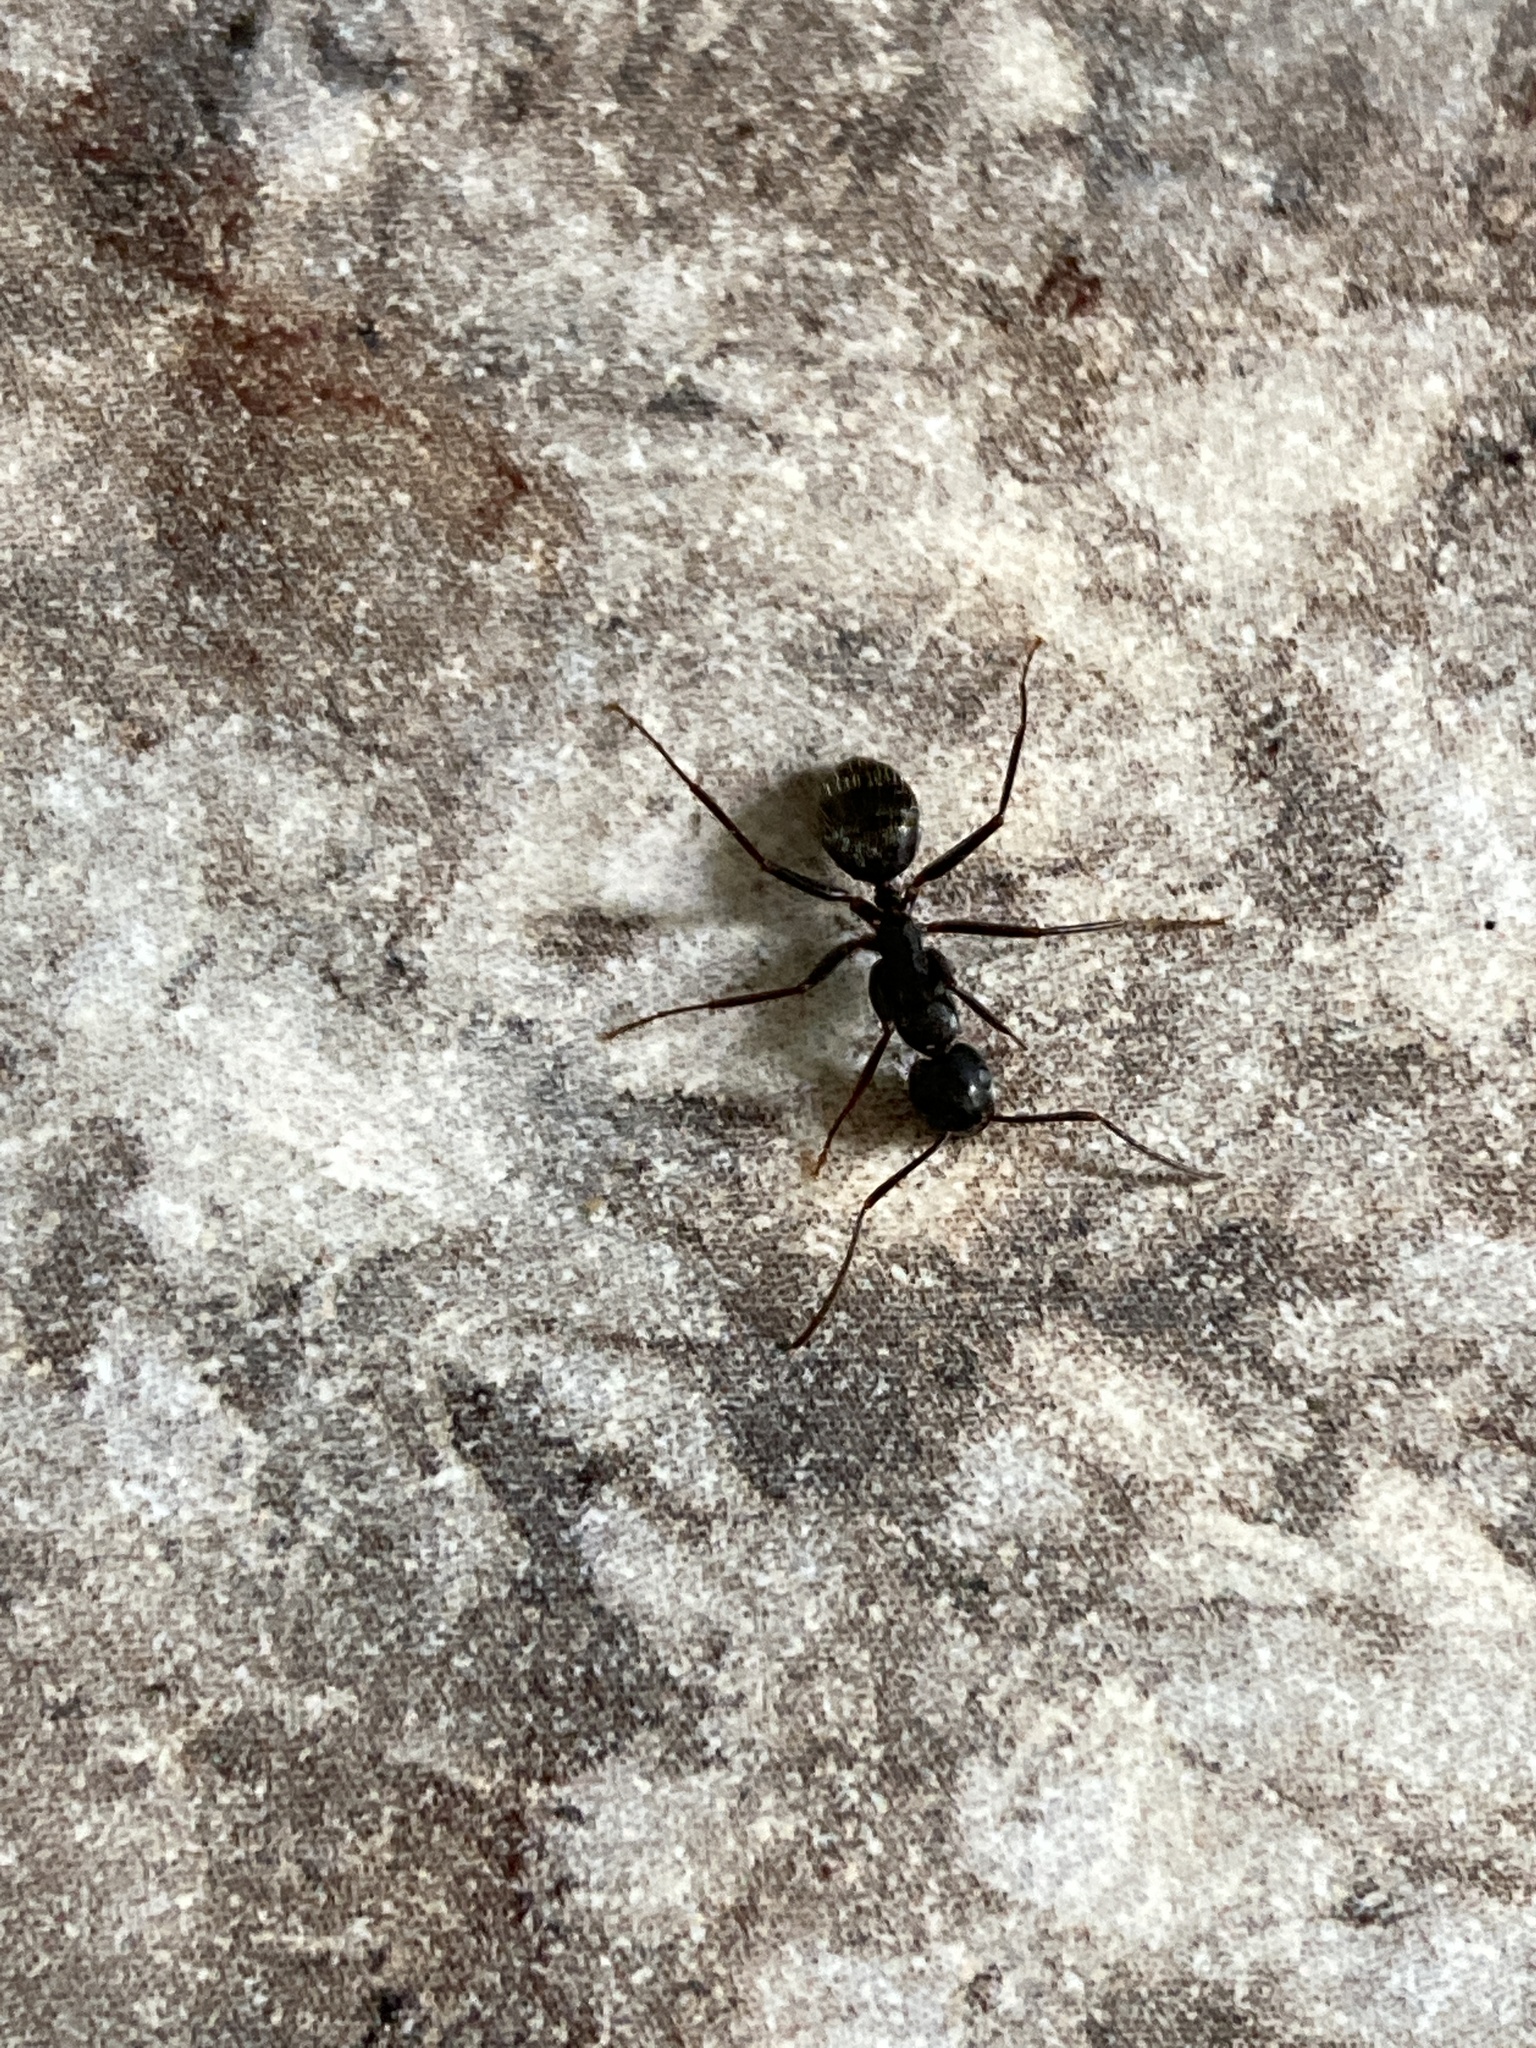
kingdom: Animalia
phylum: Arthropoda
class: Insecta
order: Hymenoptera
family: Formicidae
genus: Camponotus
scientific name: Camponotus pennsylvanicus
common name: Black carpenter ant
